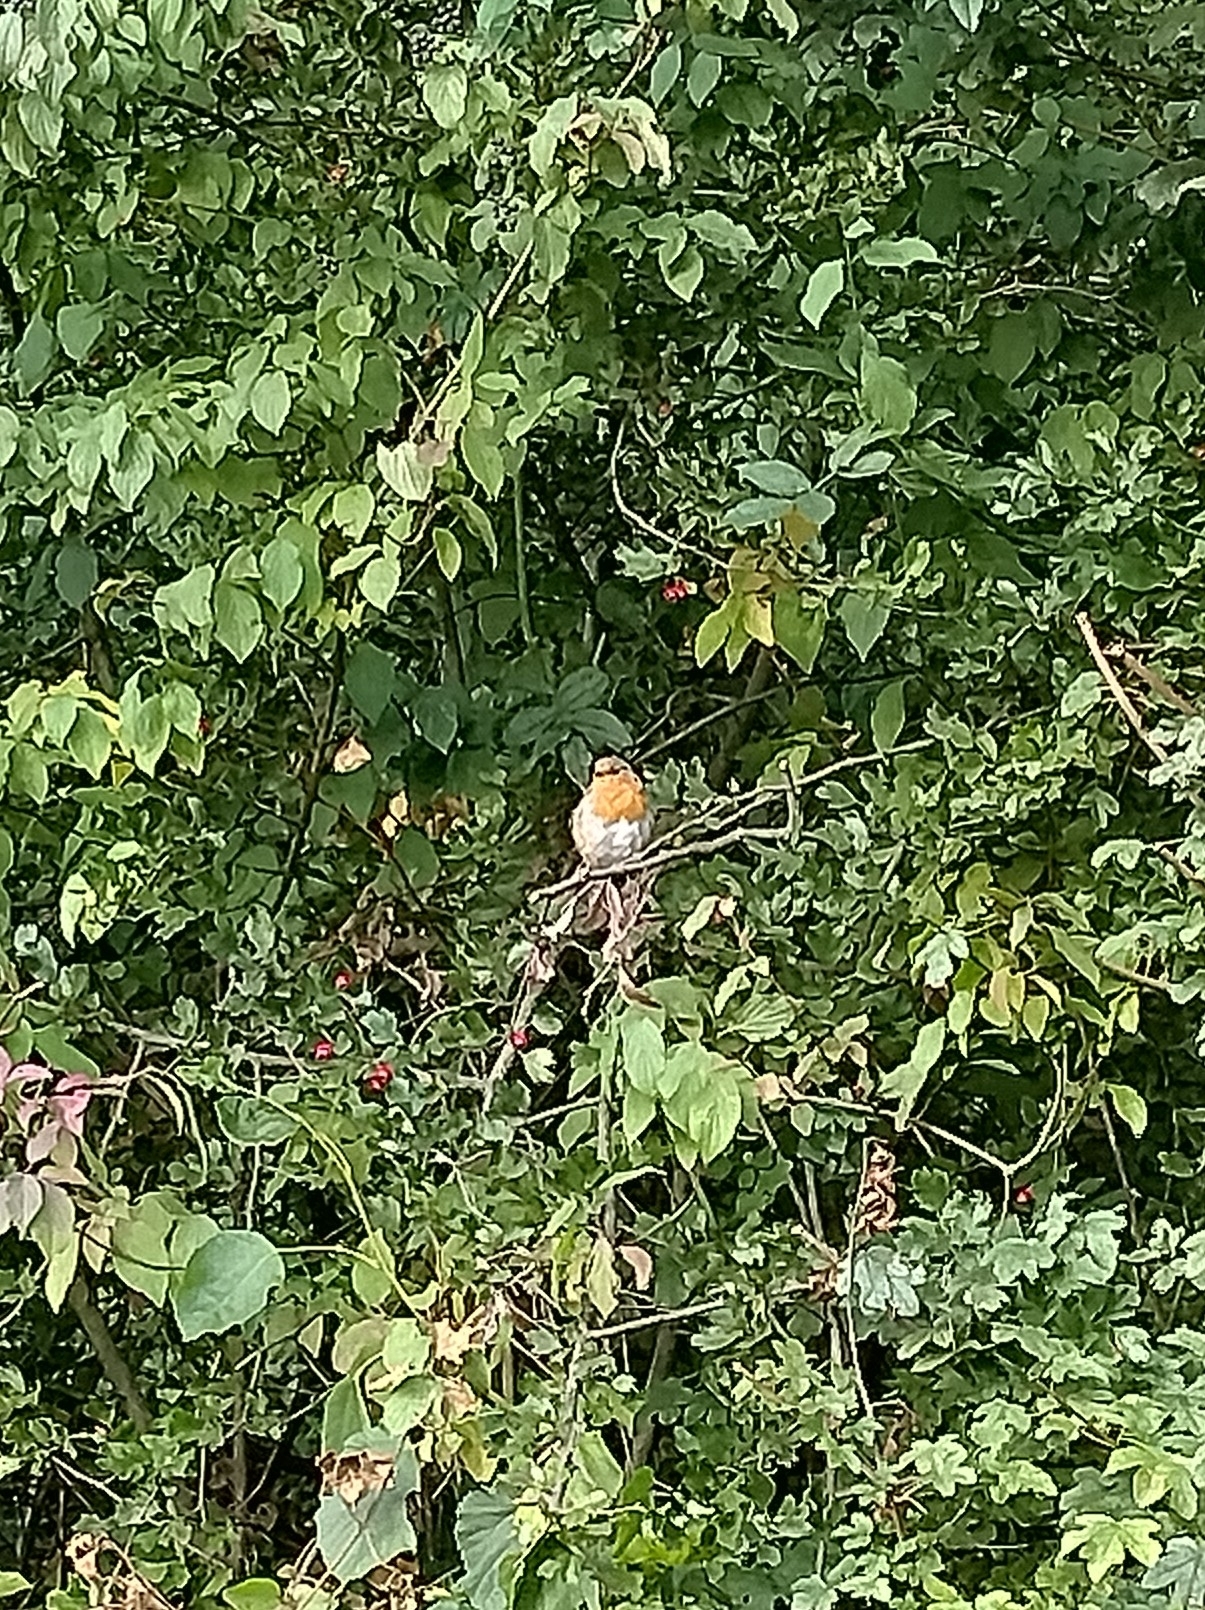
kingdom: Animalia
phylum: Chordata
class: Aves
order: Passeriformes
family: Muscicapidae
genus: Erithacus
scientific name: Erithacus rubecula
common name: European robin
